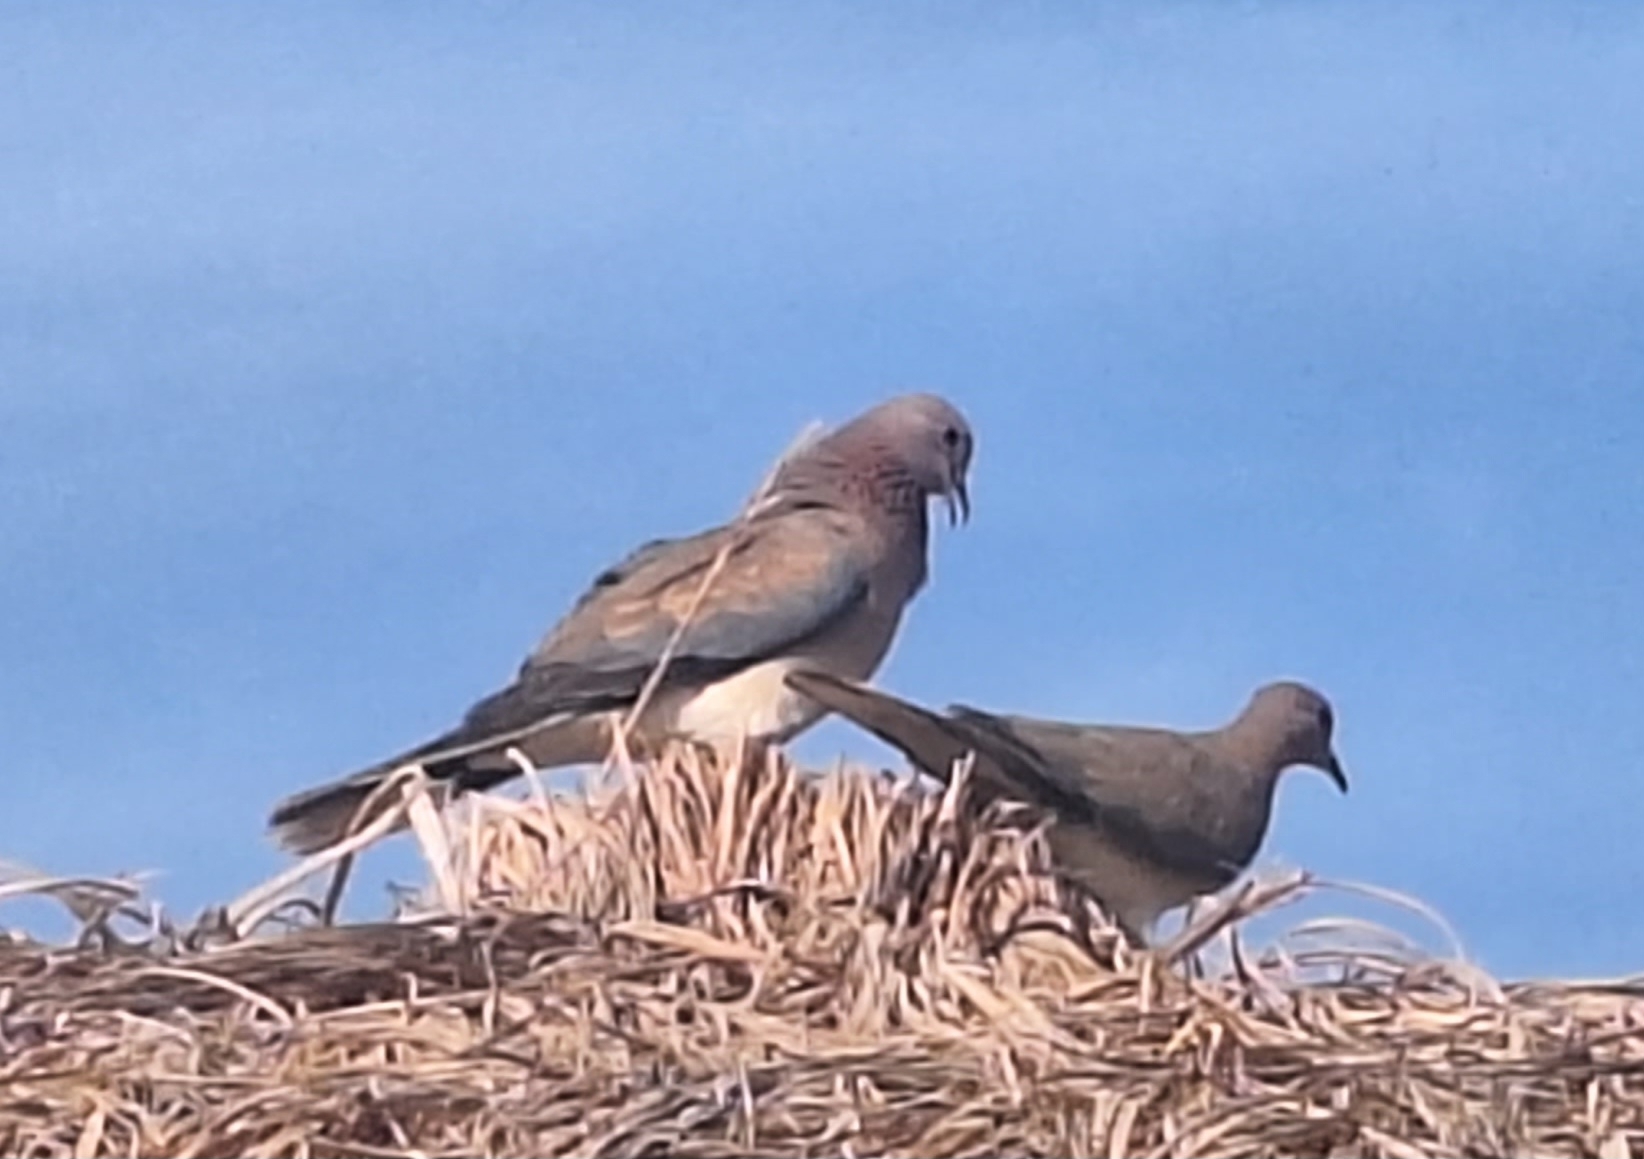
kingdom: Animalia
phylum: Chordata
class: Aves
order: Columbiformes
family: Columbidae
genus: Spilopelia
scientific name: Spilopelia senegalensis
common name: Laughing dove
